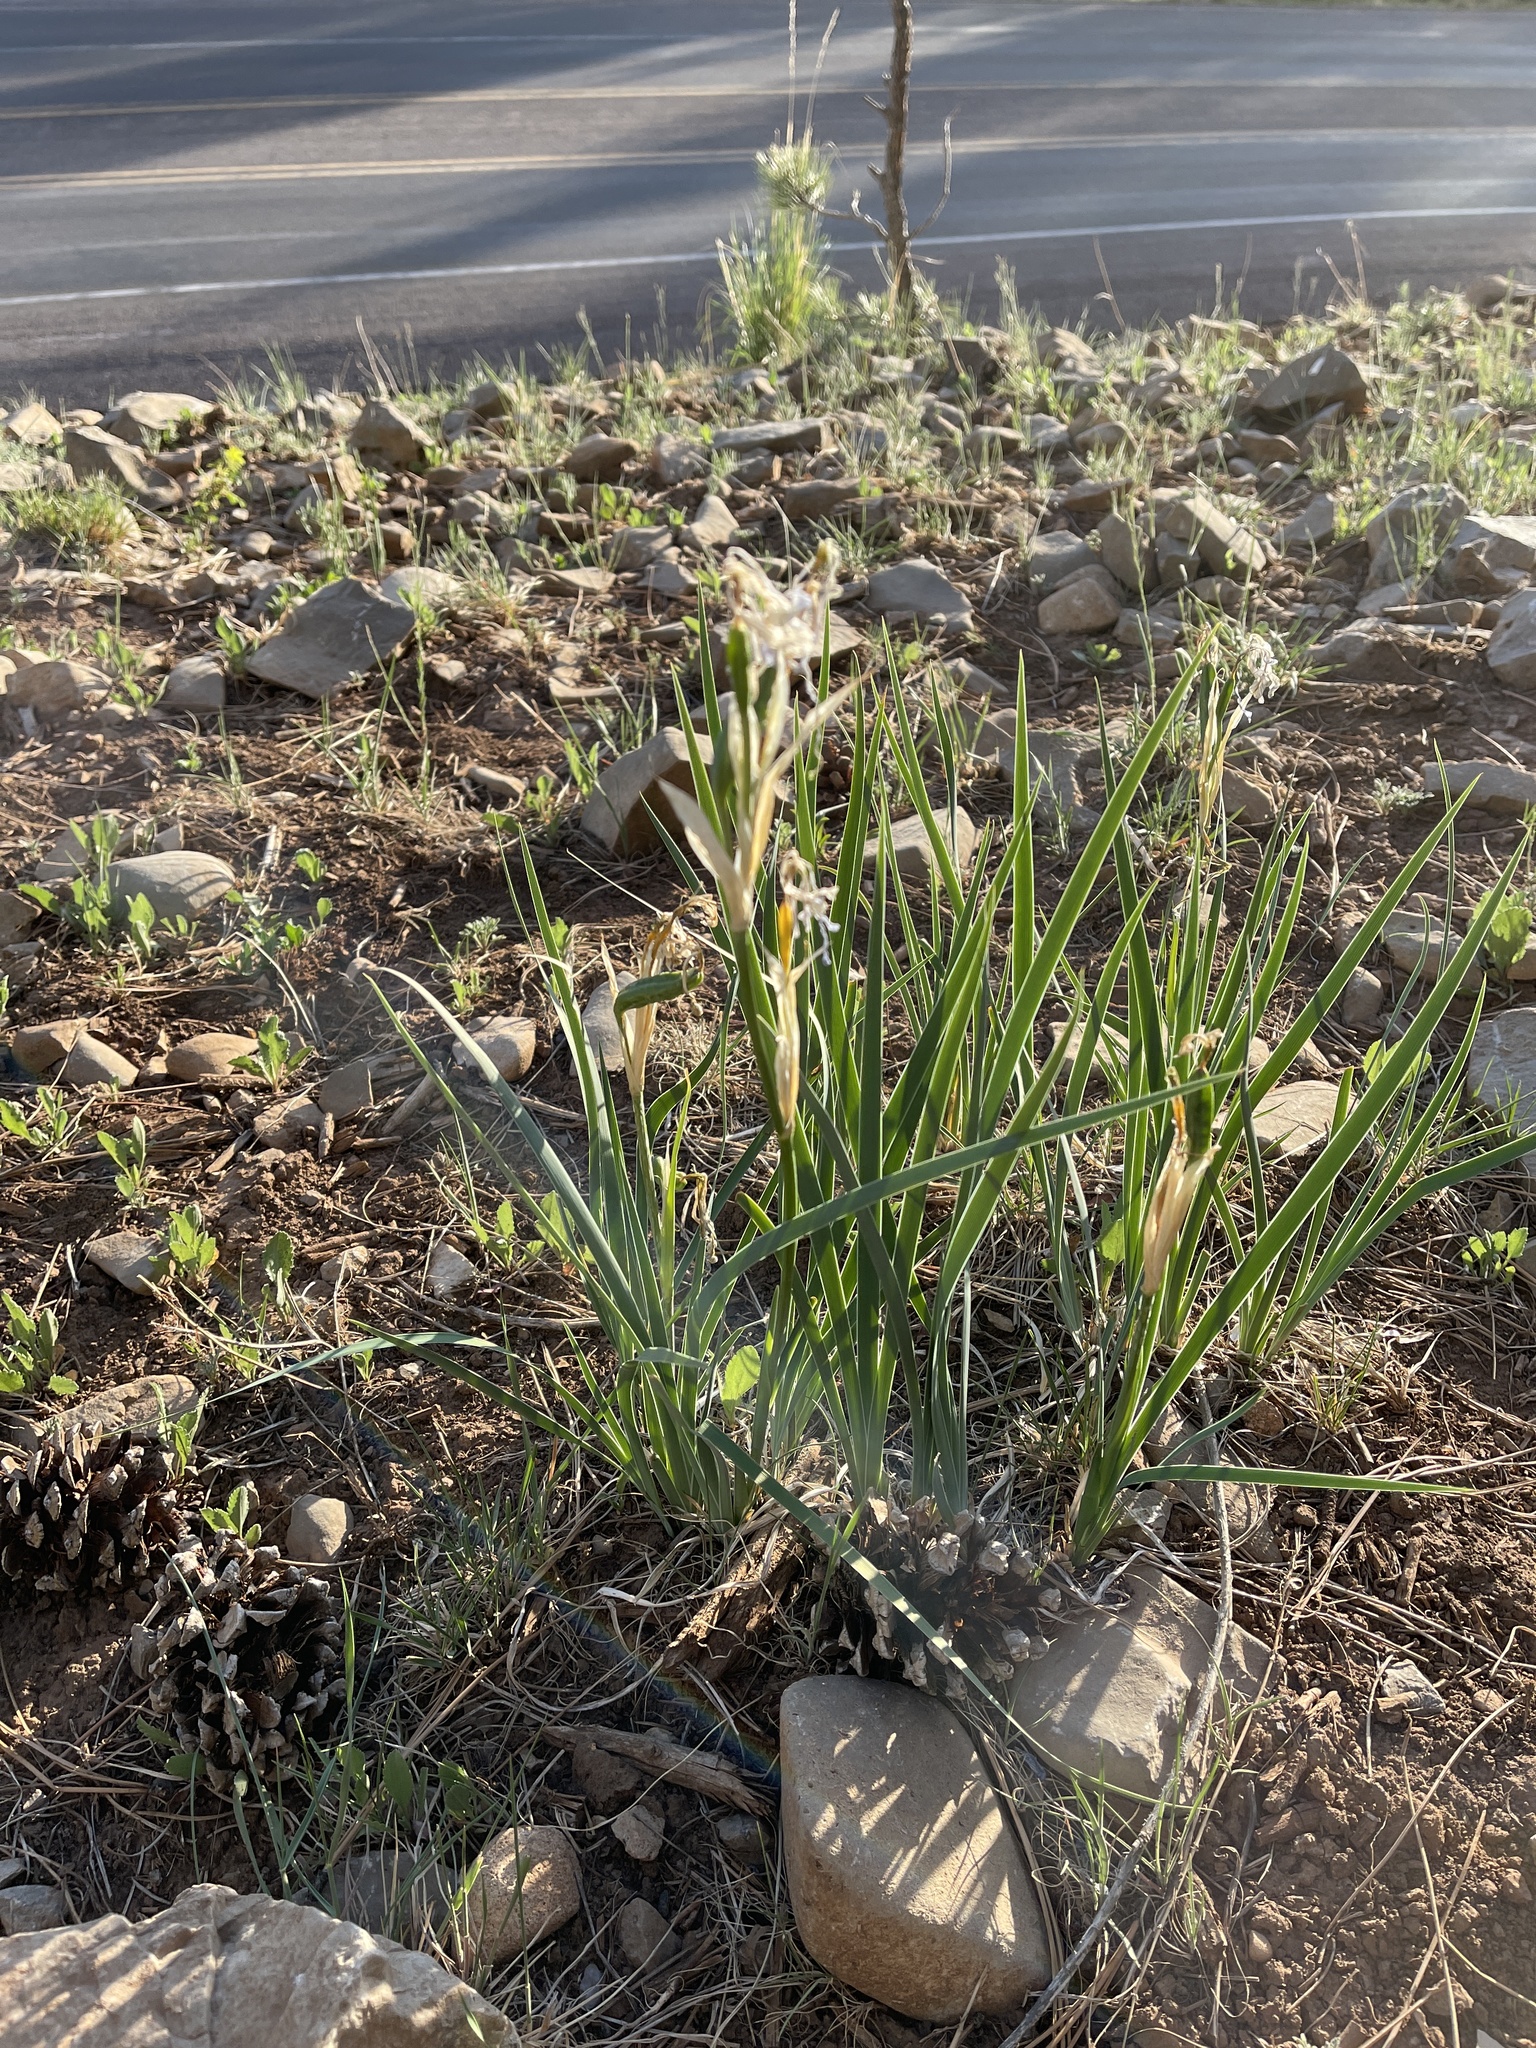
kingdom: Plantae
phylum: Tracheophyta
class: Liliopsida
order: Asparagales
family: Iridaceae
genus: Iris
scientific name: Iris missouriensis
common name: Rocky mountain iris
